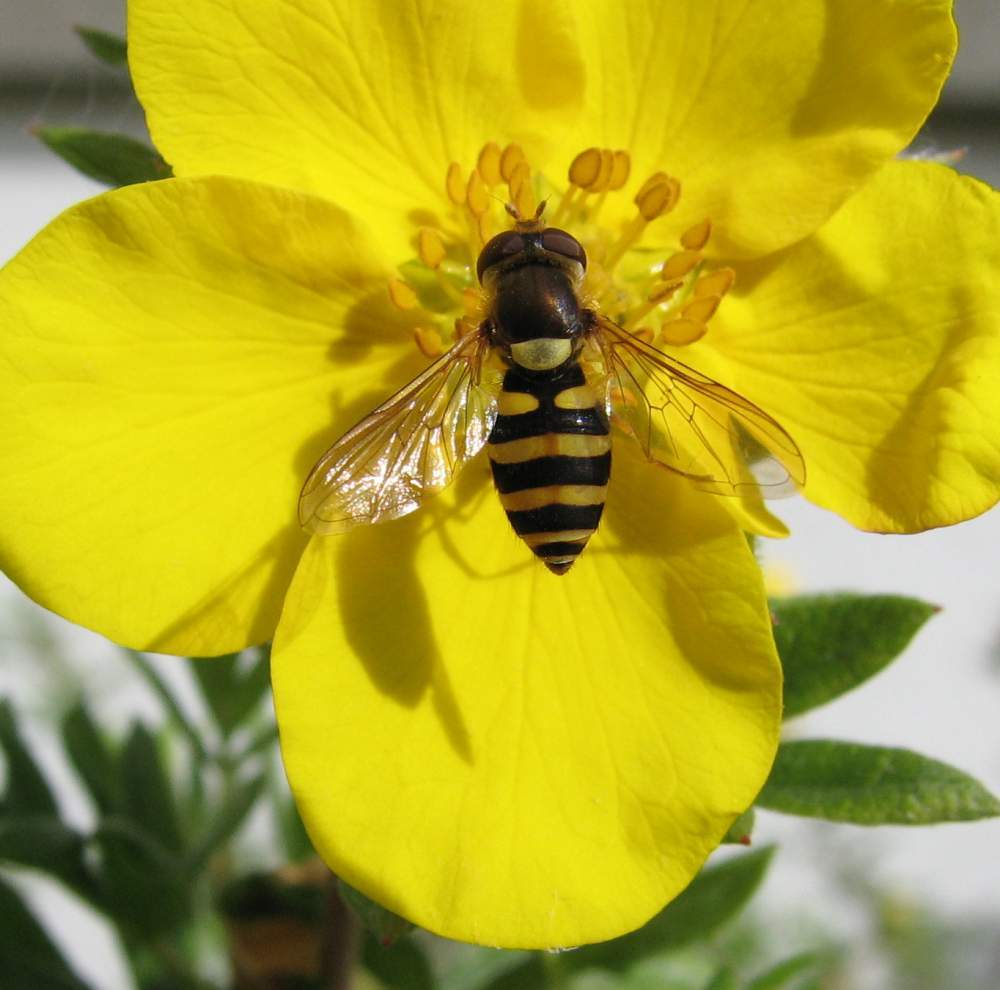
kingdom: Animalia
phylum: Arthropoda
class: Insecta
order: Diptera
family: Syrphidae
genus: Syrphus
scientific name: Syrphus
